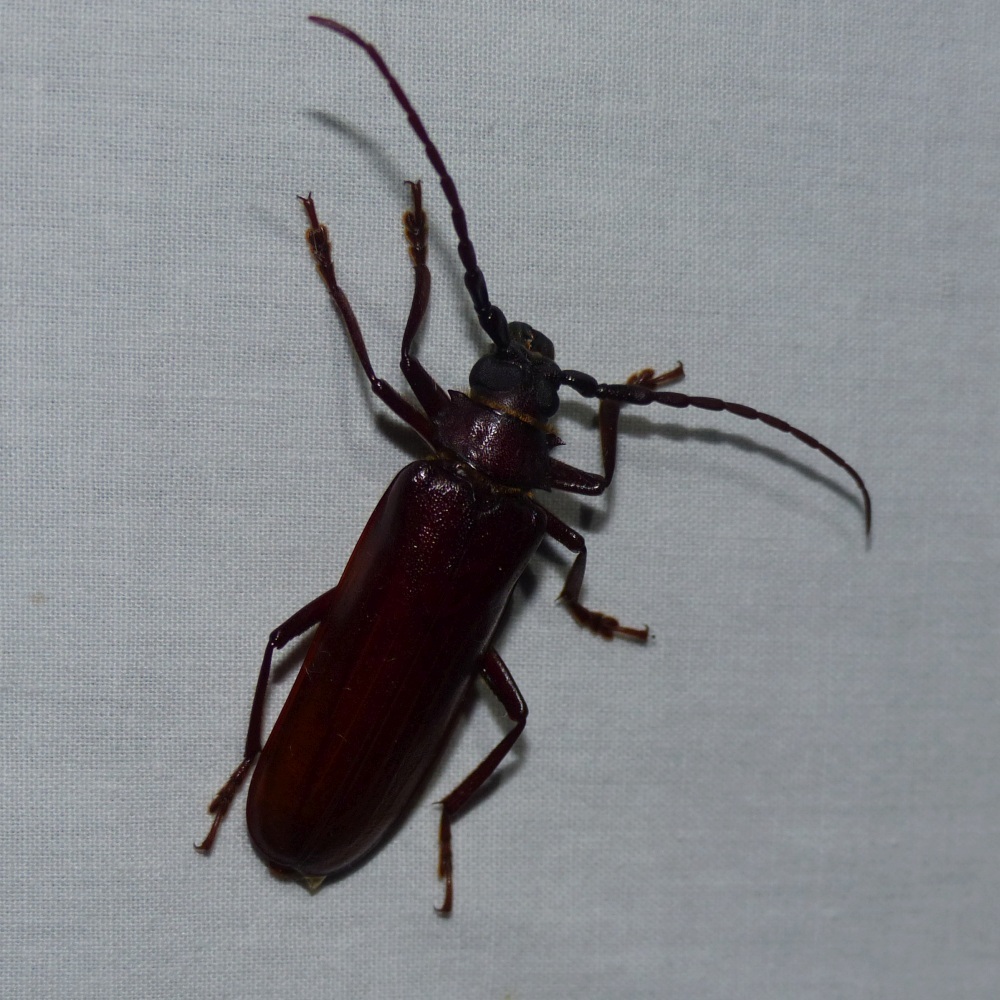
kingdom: Animalia
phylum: Arthropoda
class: Insecta
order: Coleoptera
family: Cerambycidae
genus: Orthosoma
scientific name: Orthosoma brunneum
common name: Brown prionid beetle
